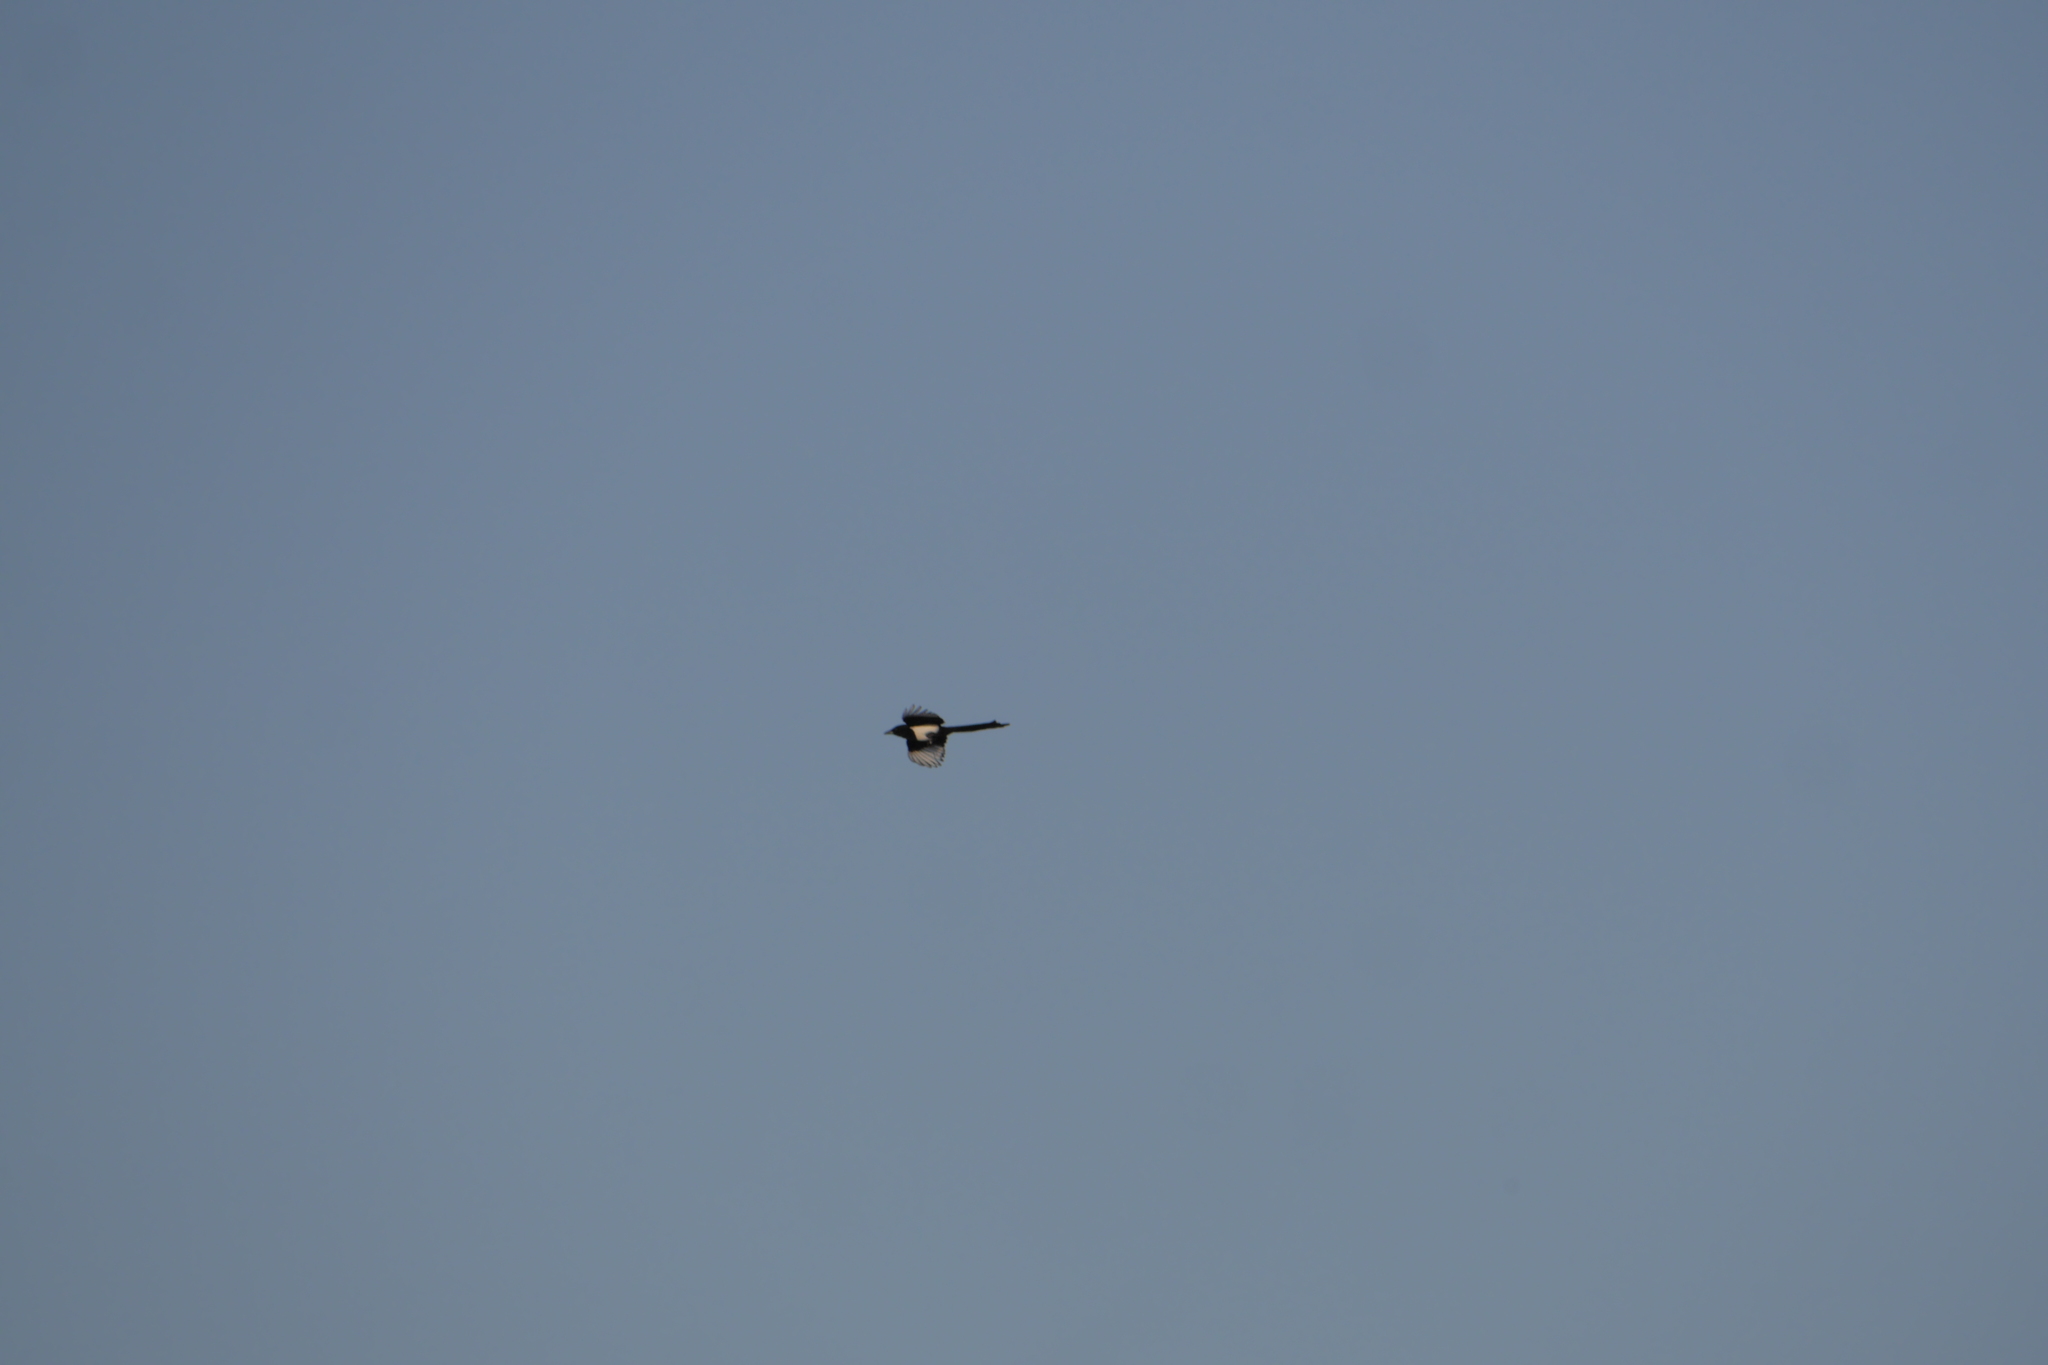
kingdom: Animalia
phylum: Chordata
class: Aves
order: Passeriformes
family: Corvidae
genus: Pica
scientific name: Pica pica
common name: Eurasian magpie
